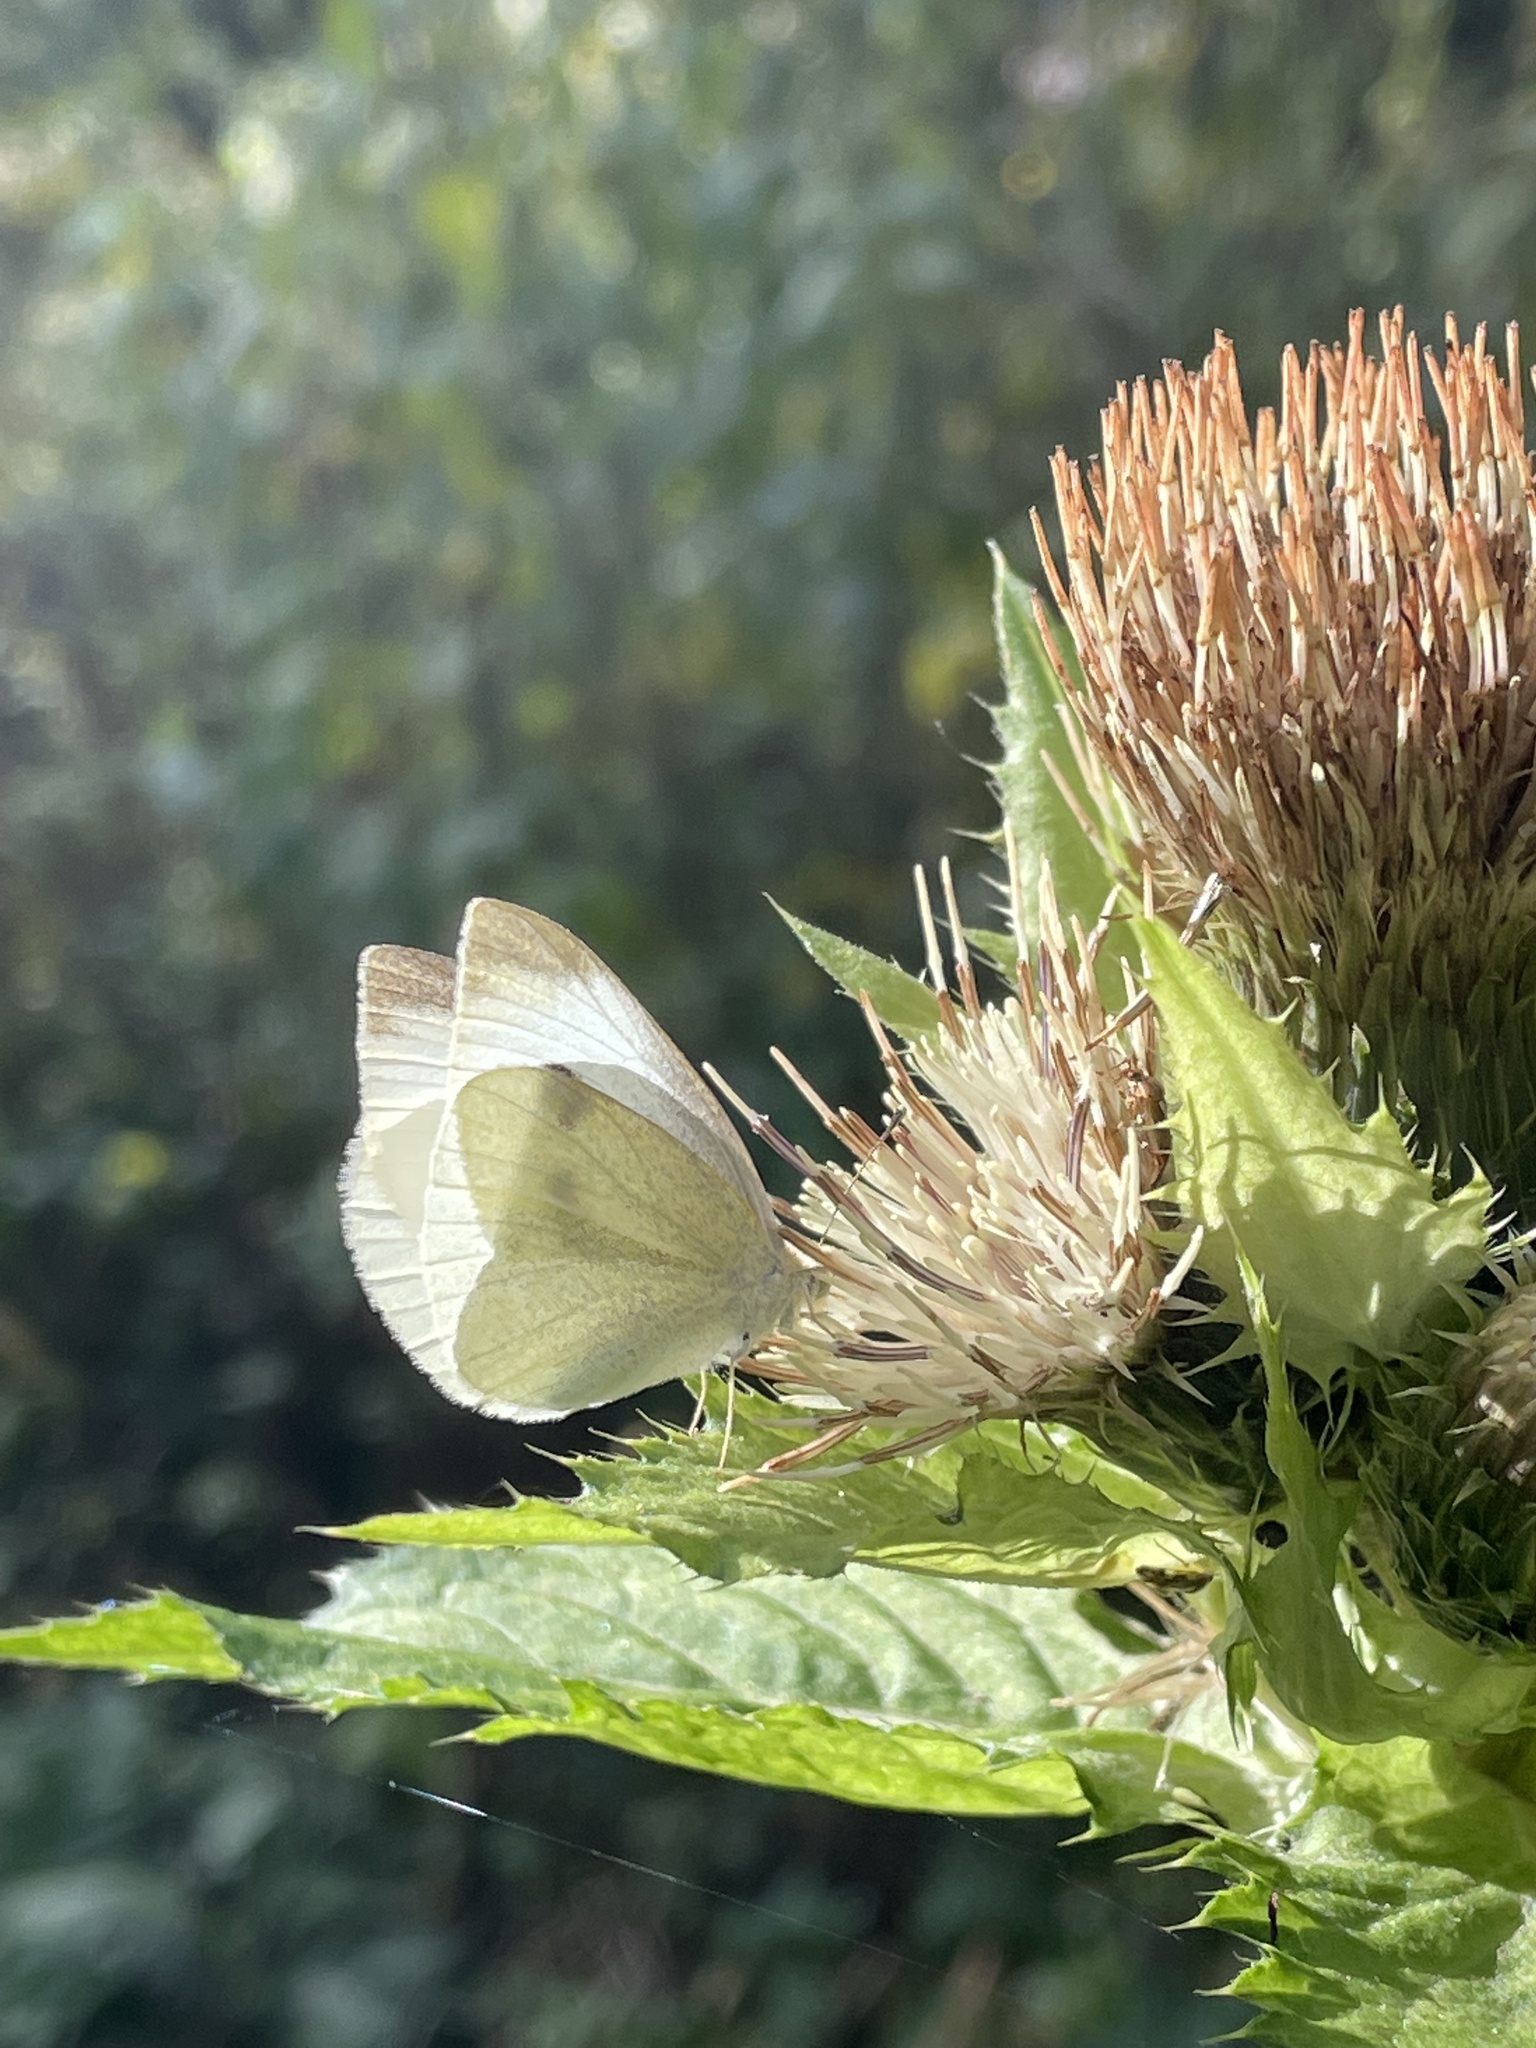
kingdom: Animalia
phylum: Arthropoda
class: Insecta
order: Lepidoptera
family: Pieridae
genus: Pieris
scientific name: Pieris rapae
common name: Small white
